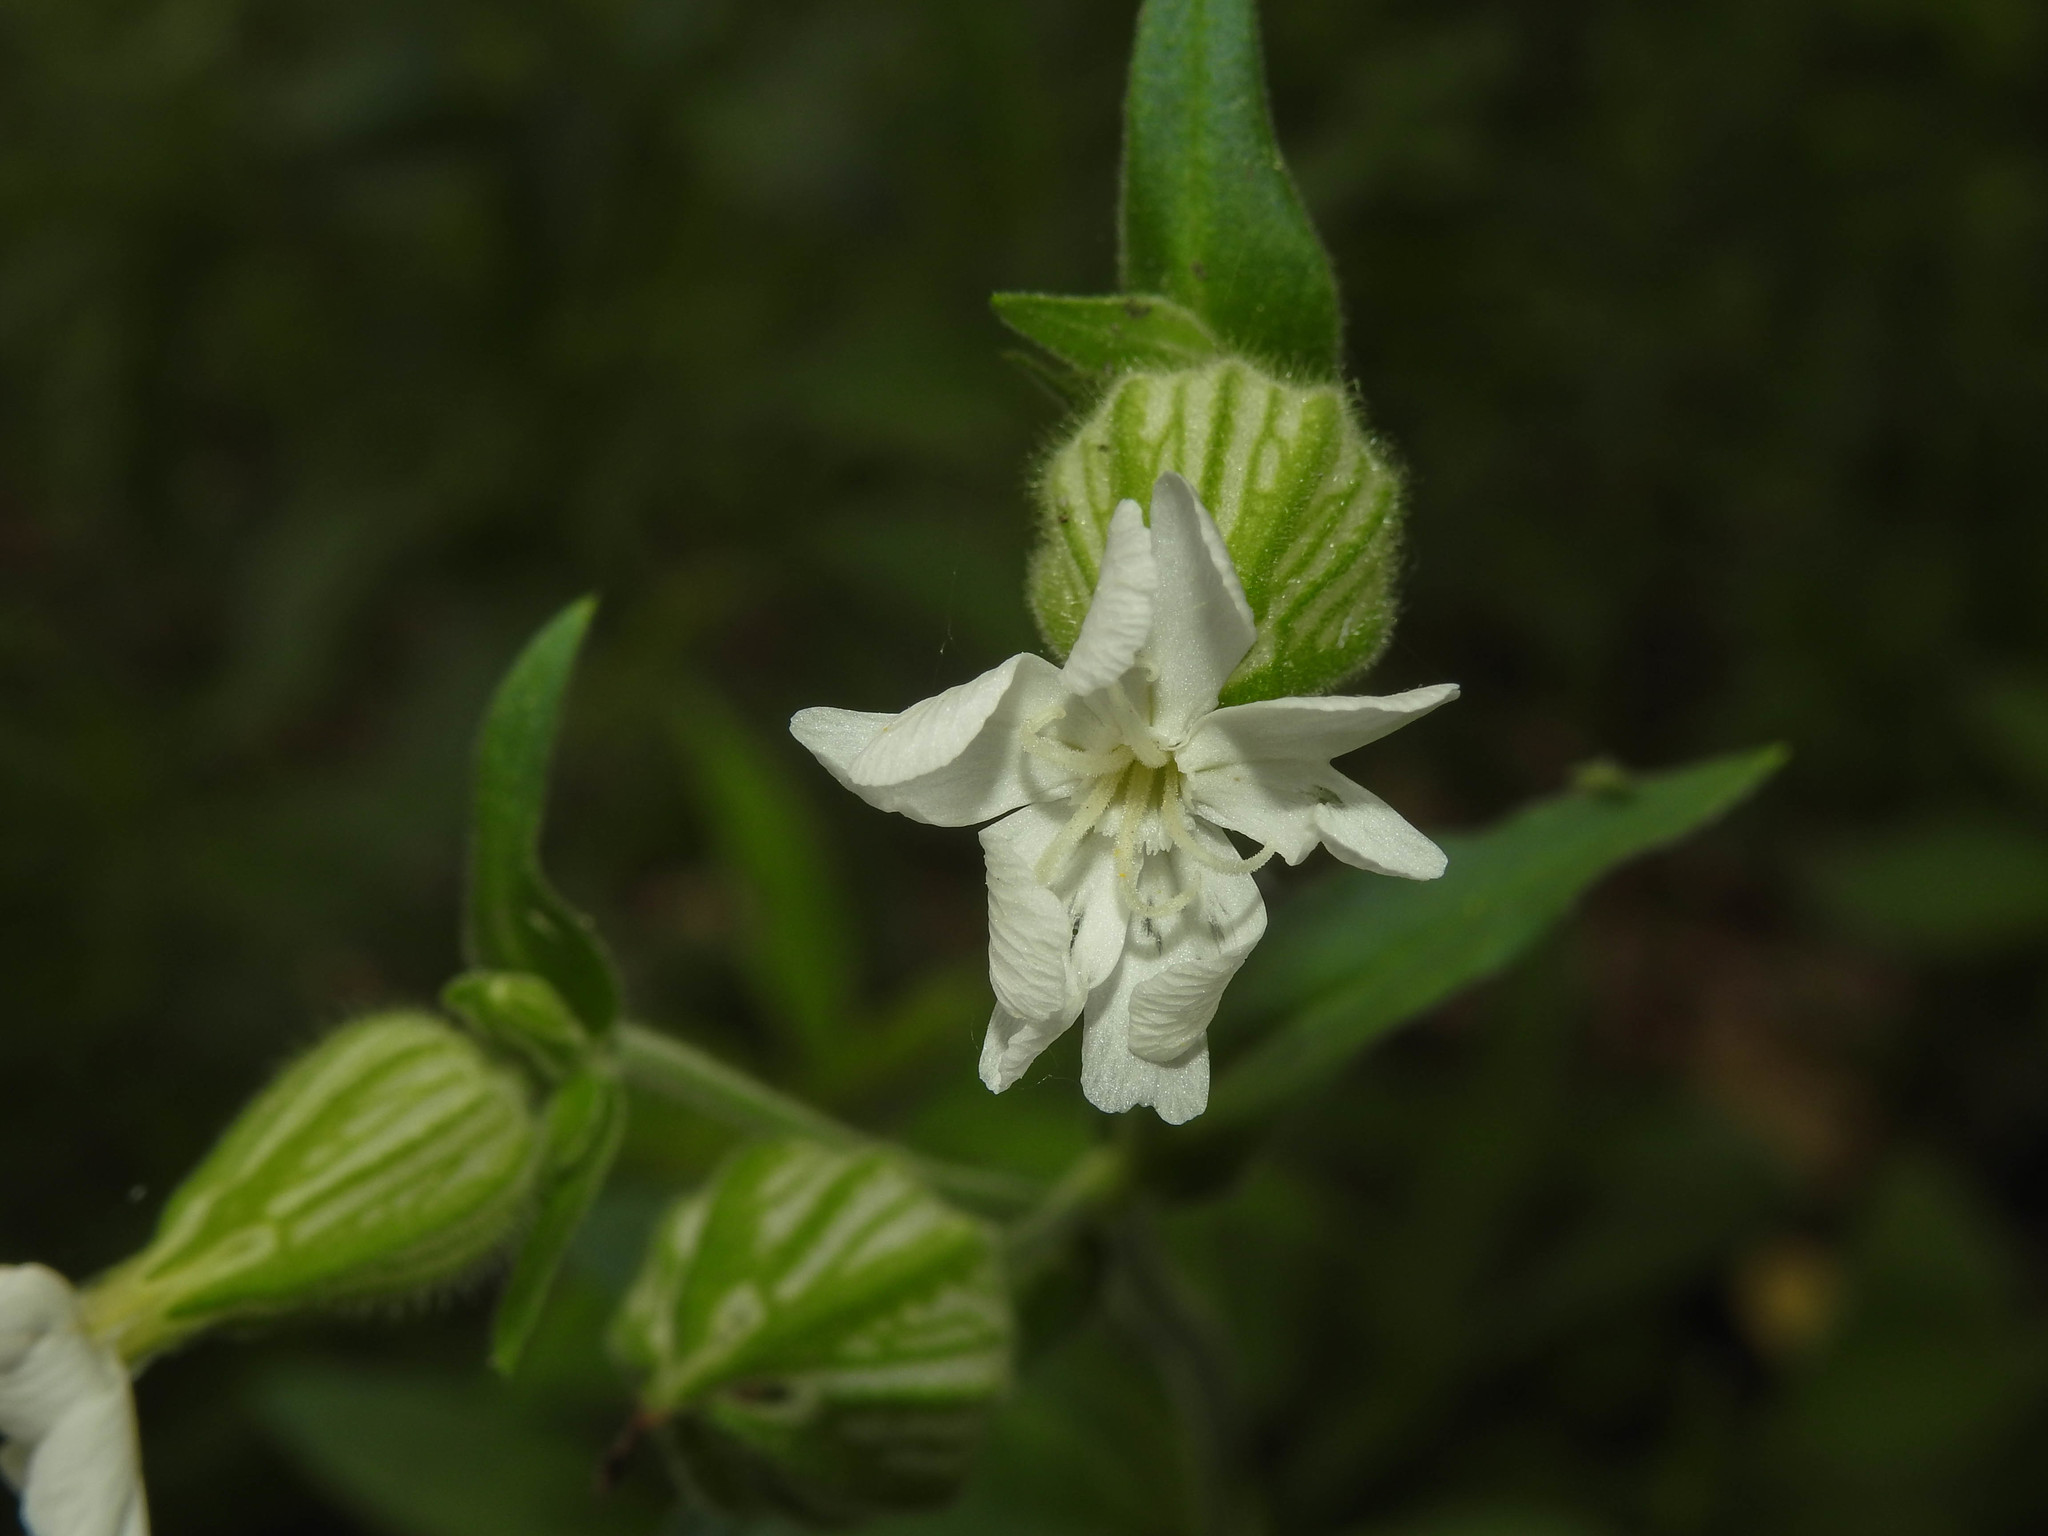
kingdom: Plantae
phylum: Tracheophyta
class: Magnoliopsida
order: Caryophyllales
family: Caryophyllaceae
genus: Silene
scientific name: Silene latifolia
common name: White campion
